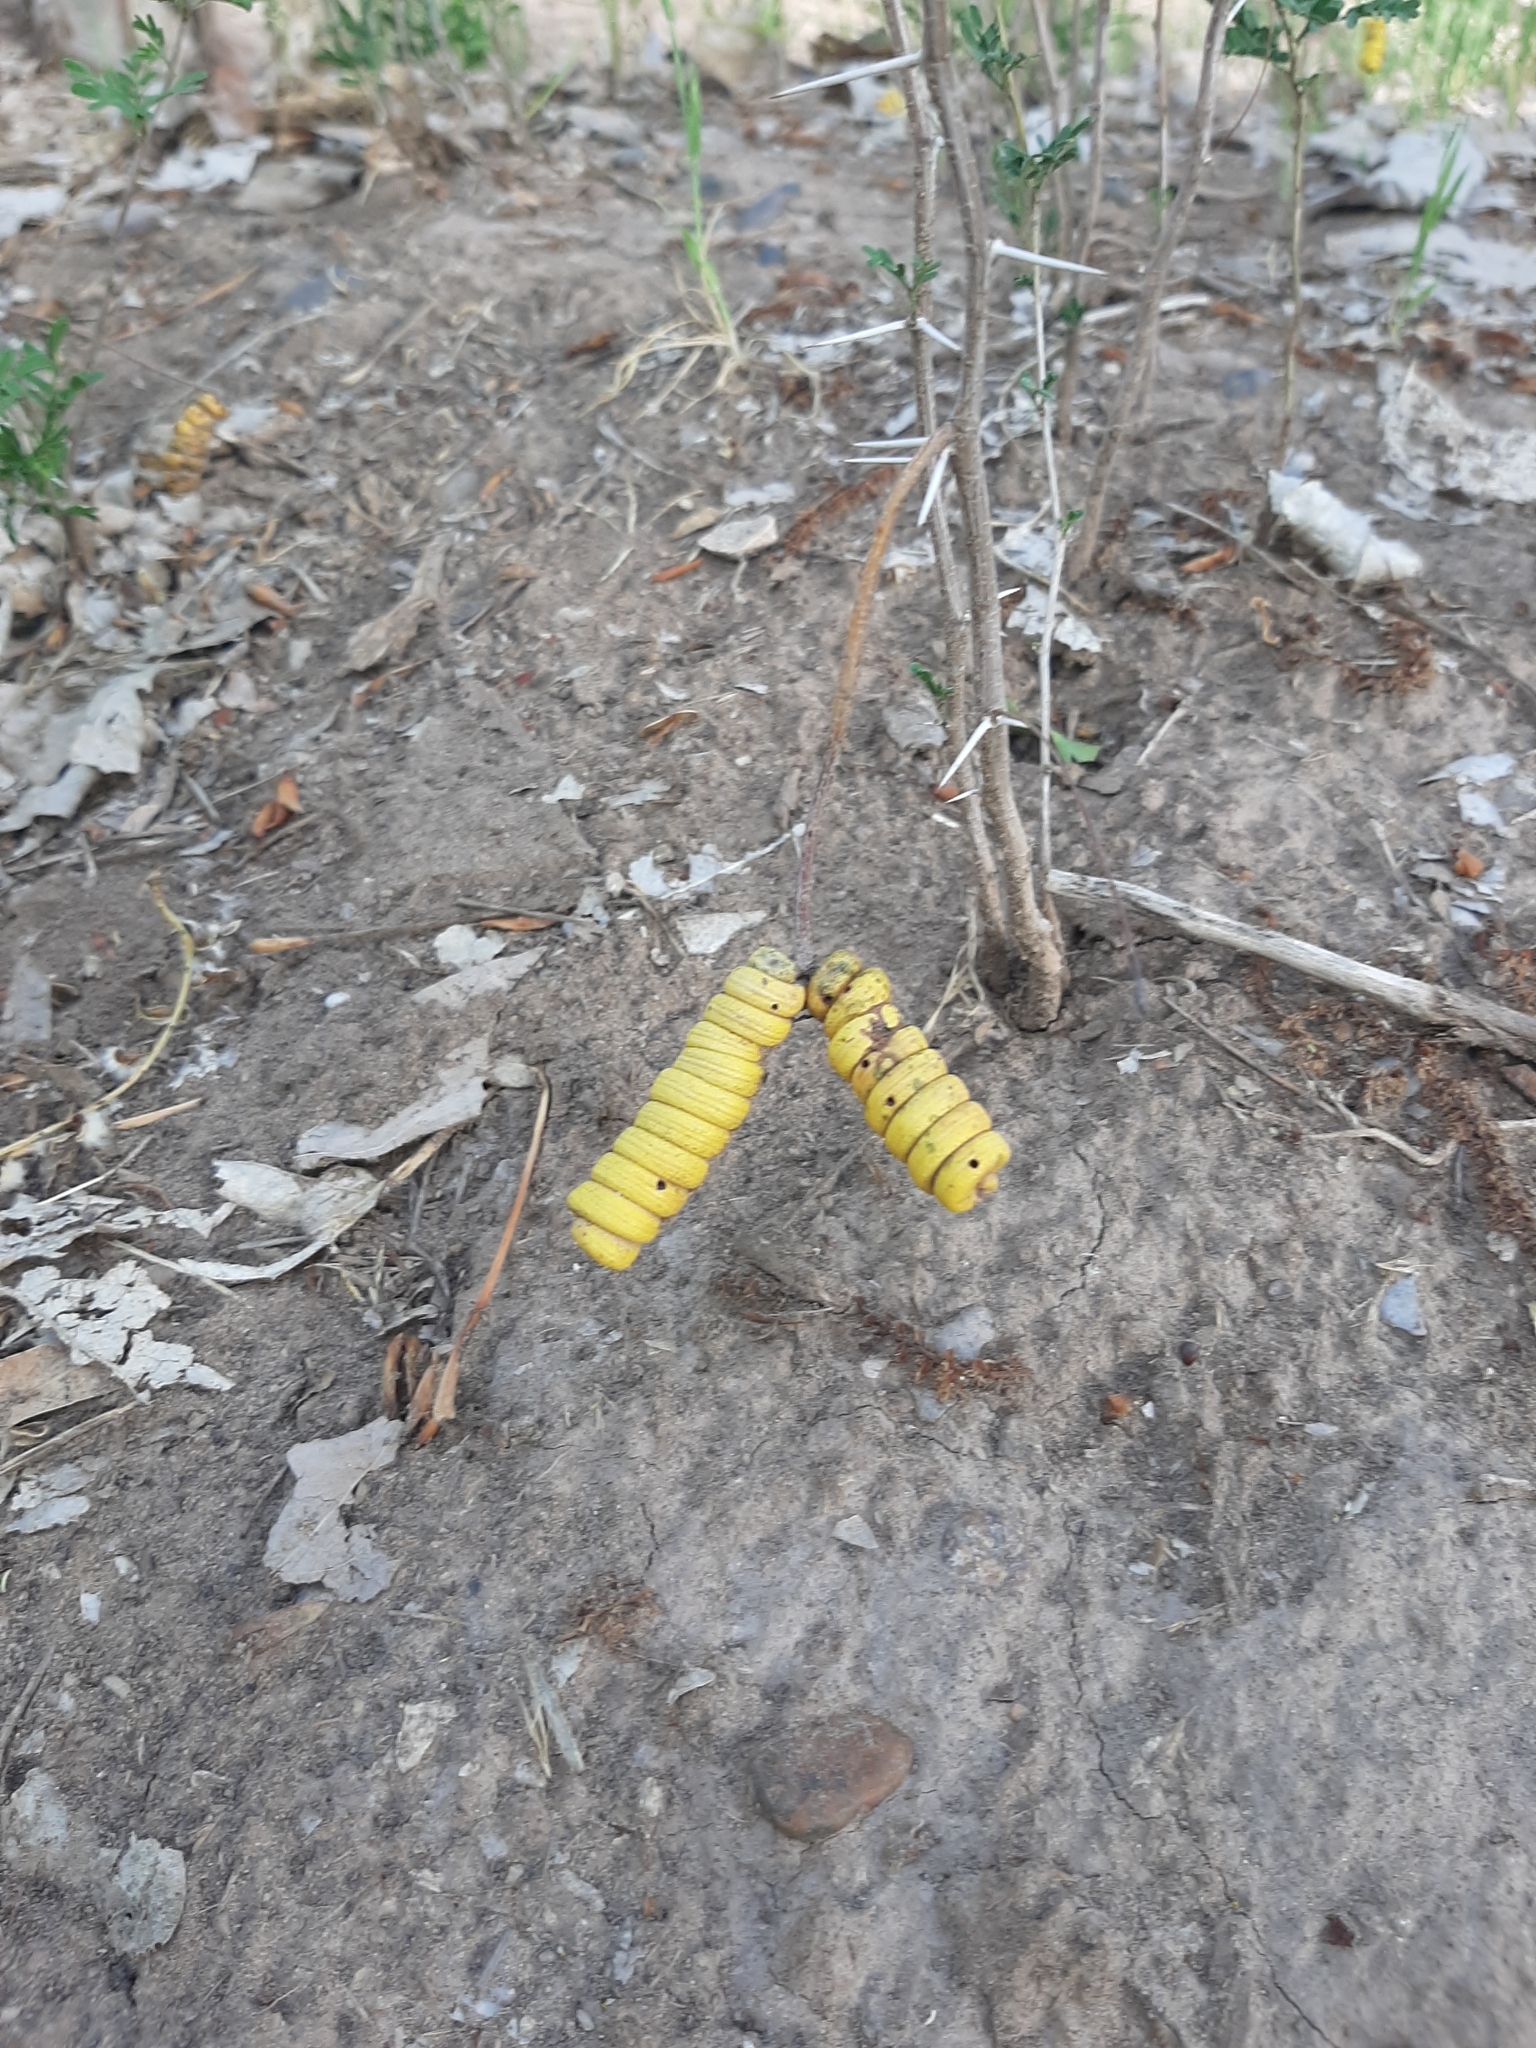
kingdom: Plantae
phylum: Tracheophyta
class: Magnoliopsida
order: Fabales
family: Fabaceae
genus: Prosopis
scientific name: Prosopis strombulifera
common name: Creeping mesquite
